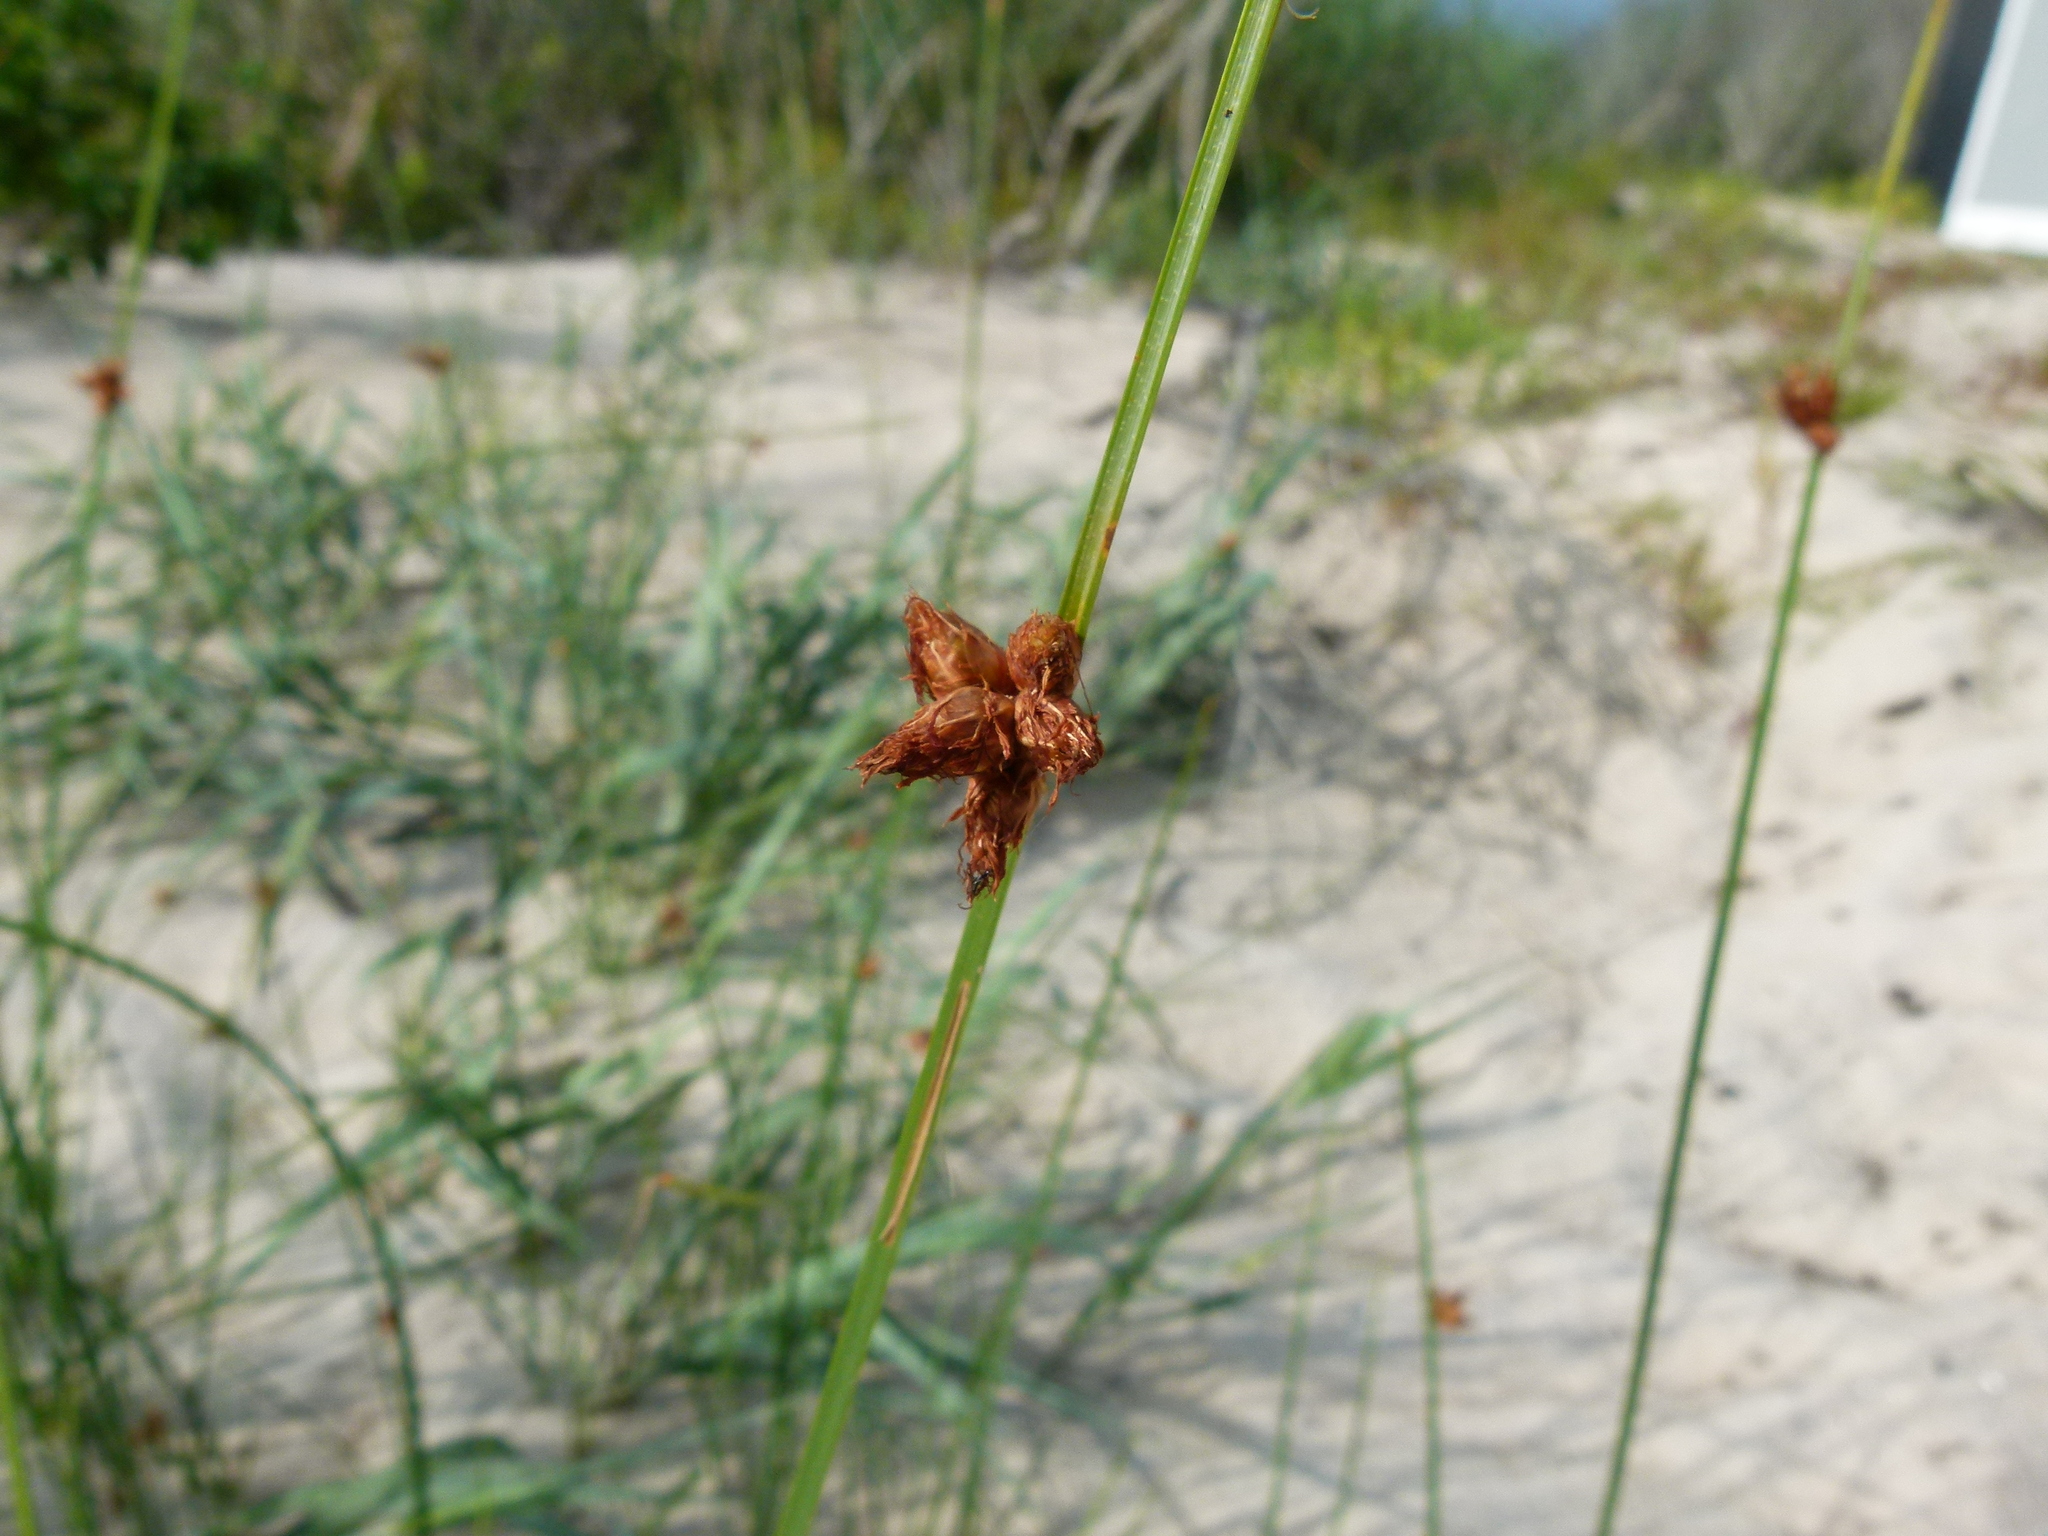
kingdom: Plantae
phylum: Tracheophyta
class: Liliopsida
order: Poales
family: Cyperaceae
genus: Schoenoplectus
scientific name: Schoenoplectus pungens
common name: Sharp club-rush
